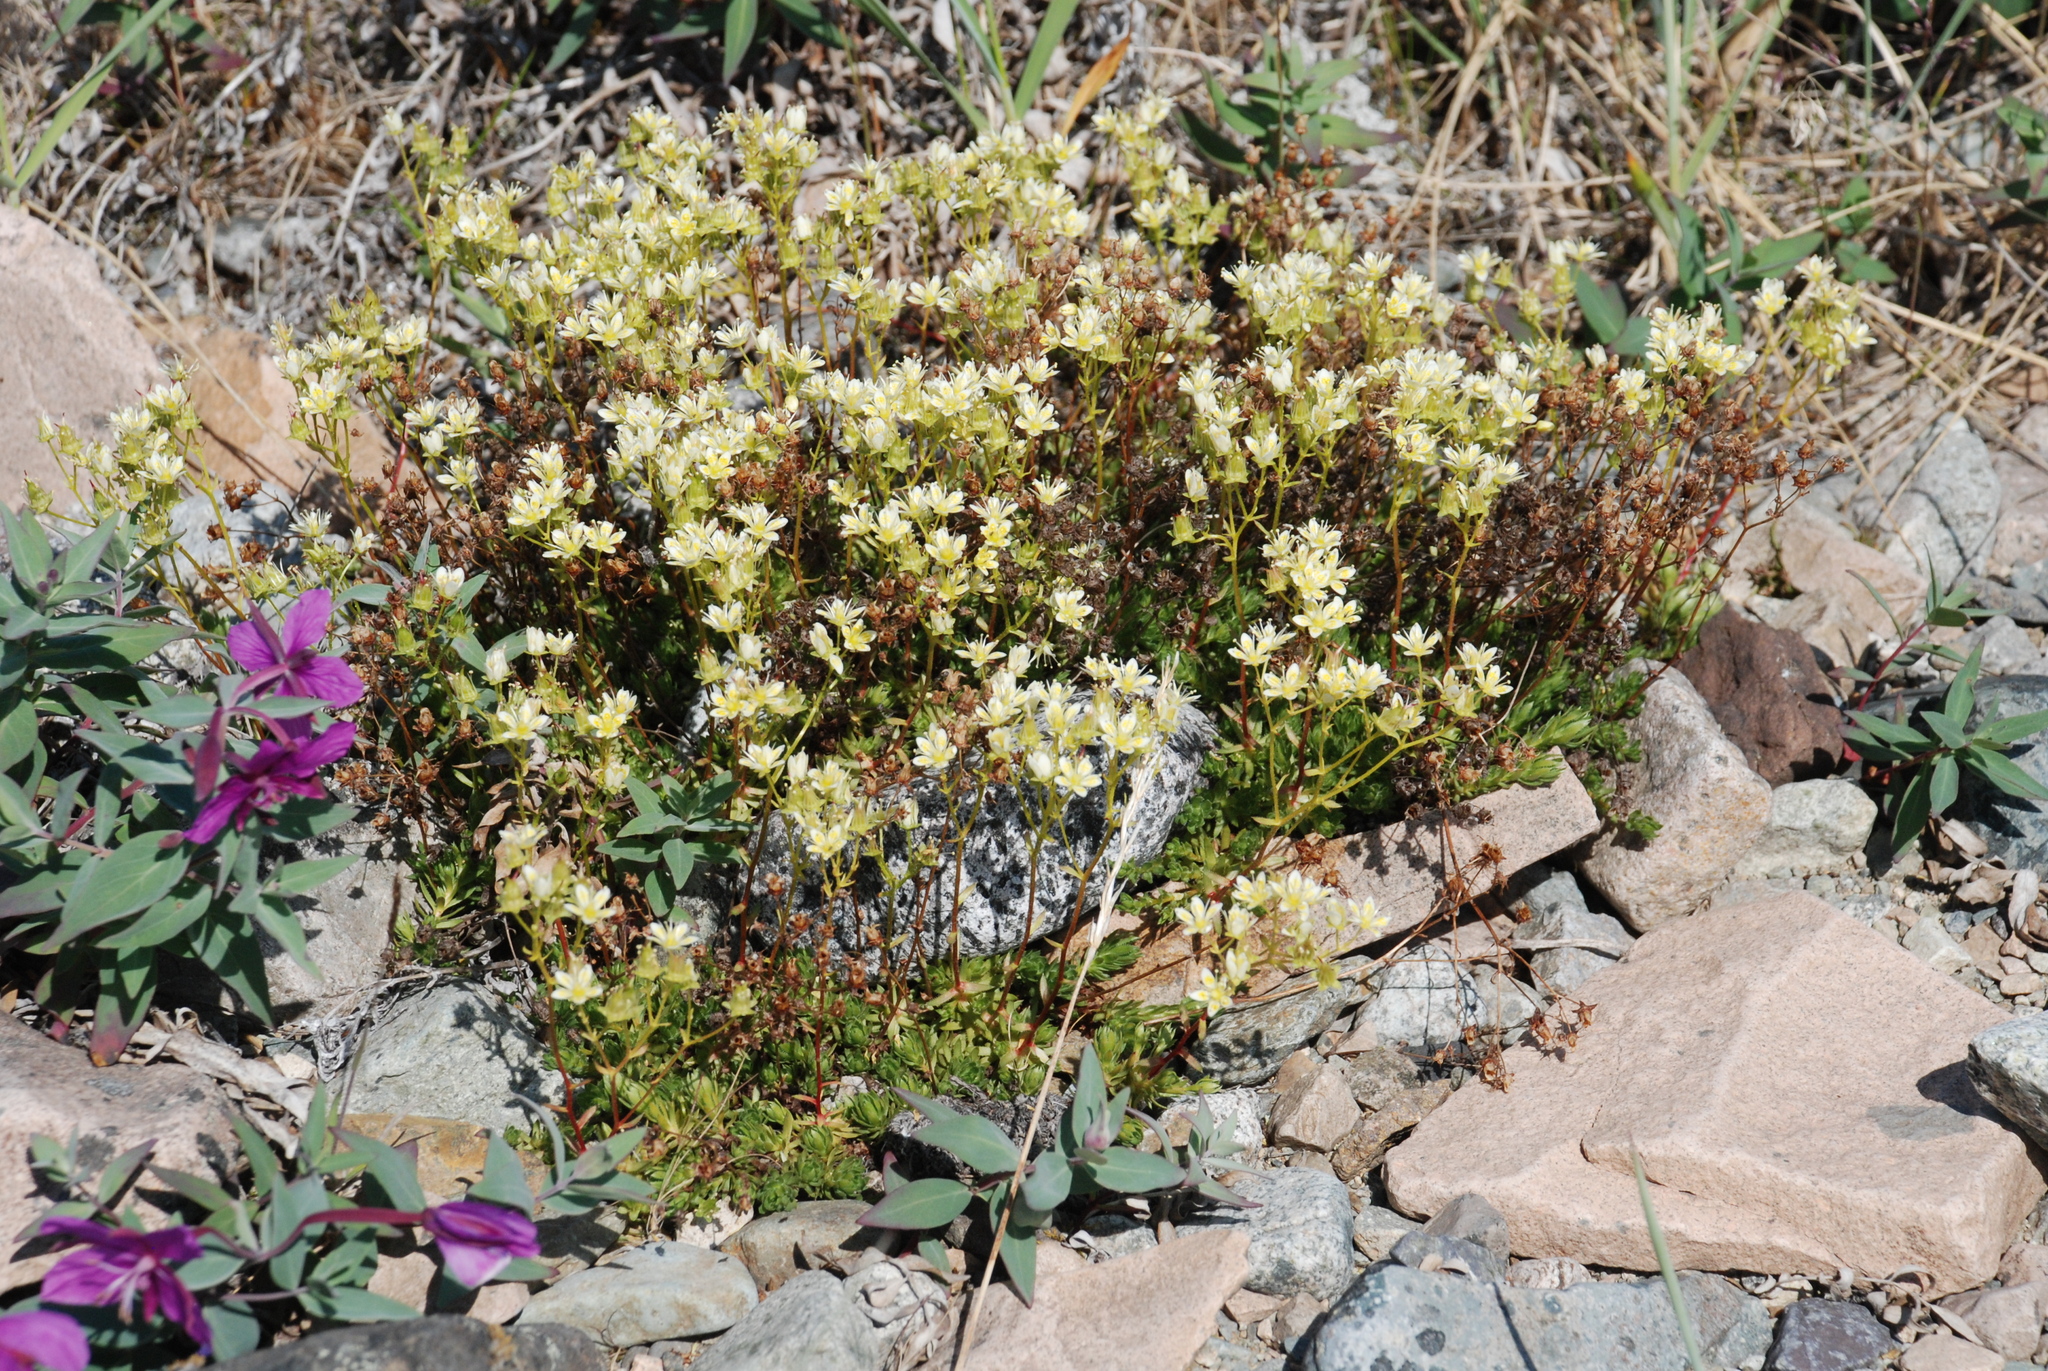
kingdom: Plantae
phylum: Tracheophyta
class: Magnoliopsida
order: Saxifragales
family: Saxifragaceae
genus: Saxifraga
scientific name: Saxifraga bronchialis
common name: Matted saxifrage
